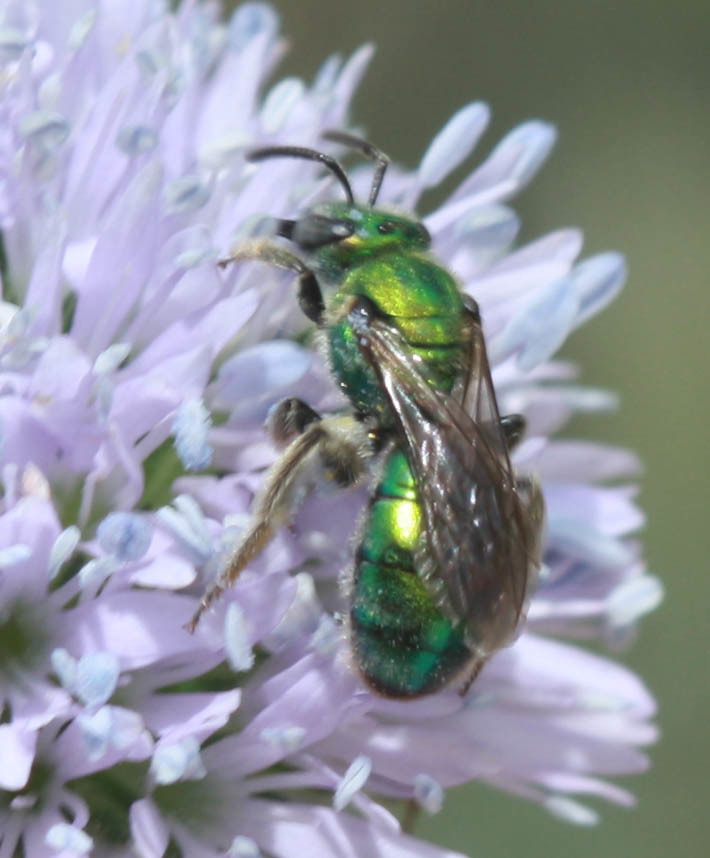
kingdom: Animalia
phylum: Arthropoda
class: Insecta
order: Hymenoptera
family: Halictidae
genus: Augochlorella
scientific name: Augochlorella pomoniella
